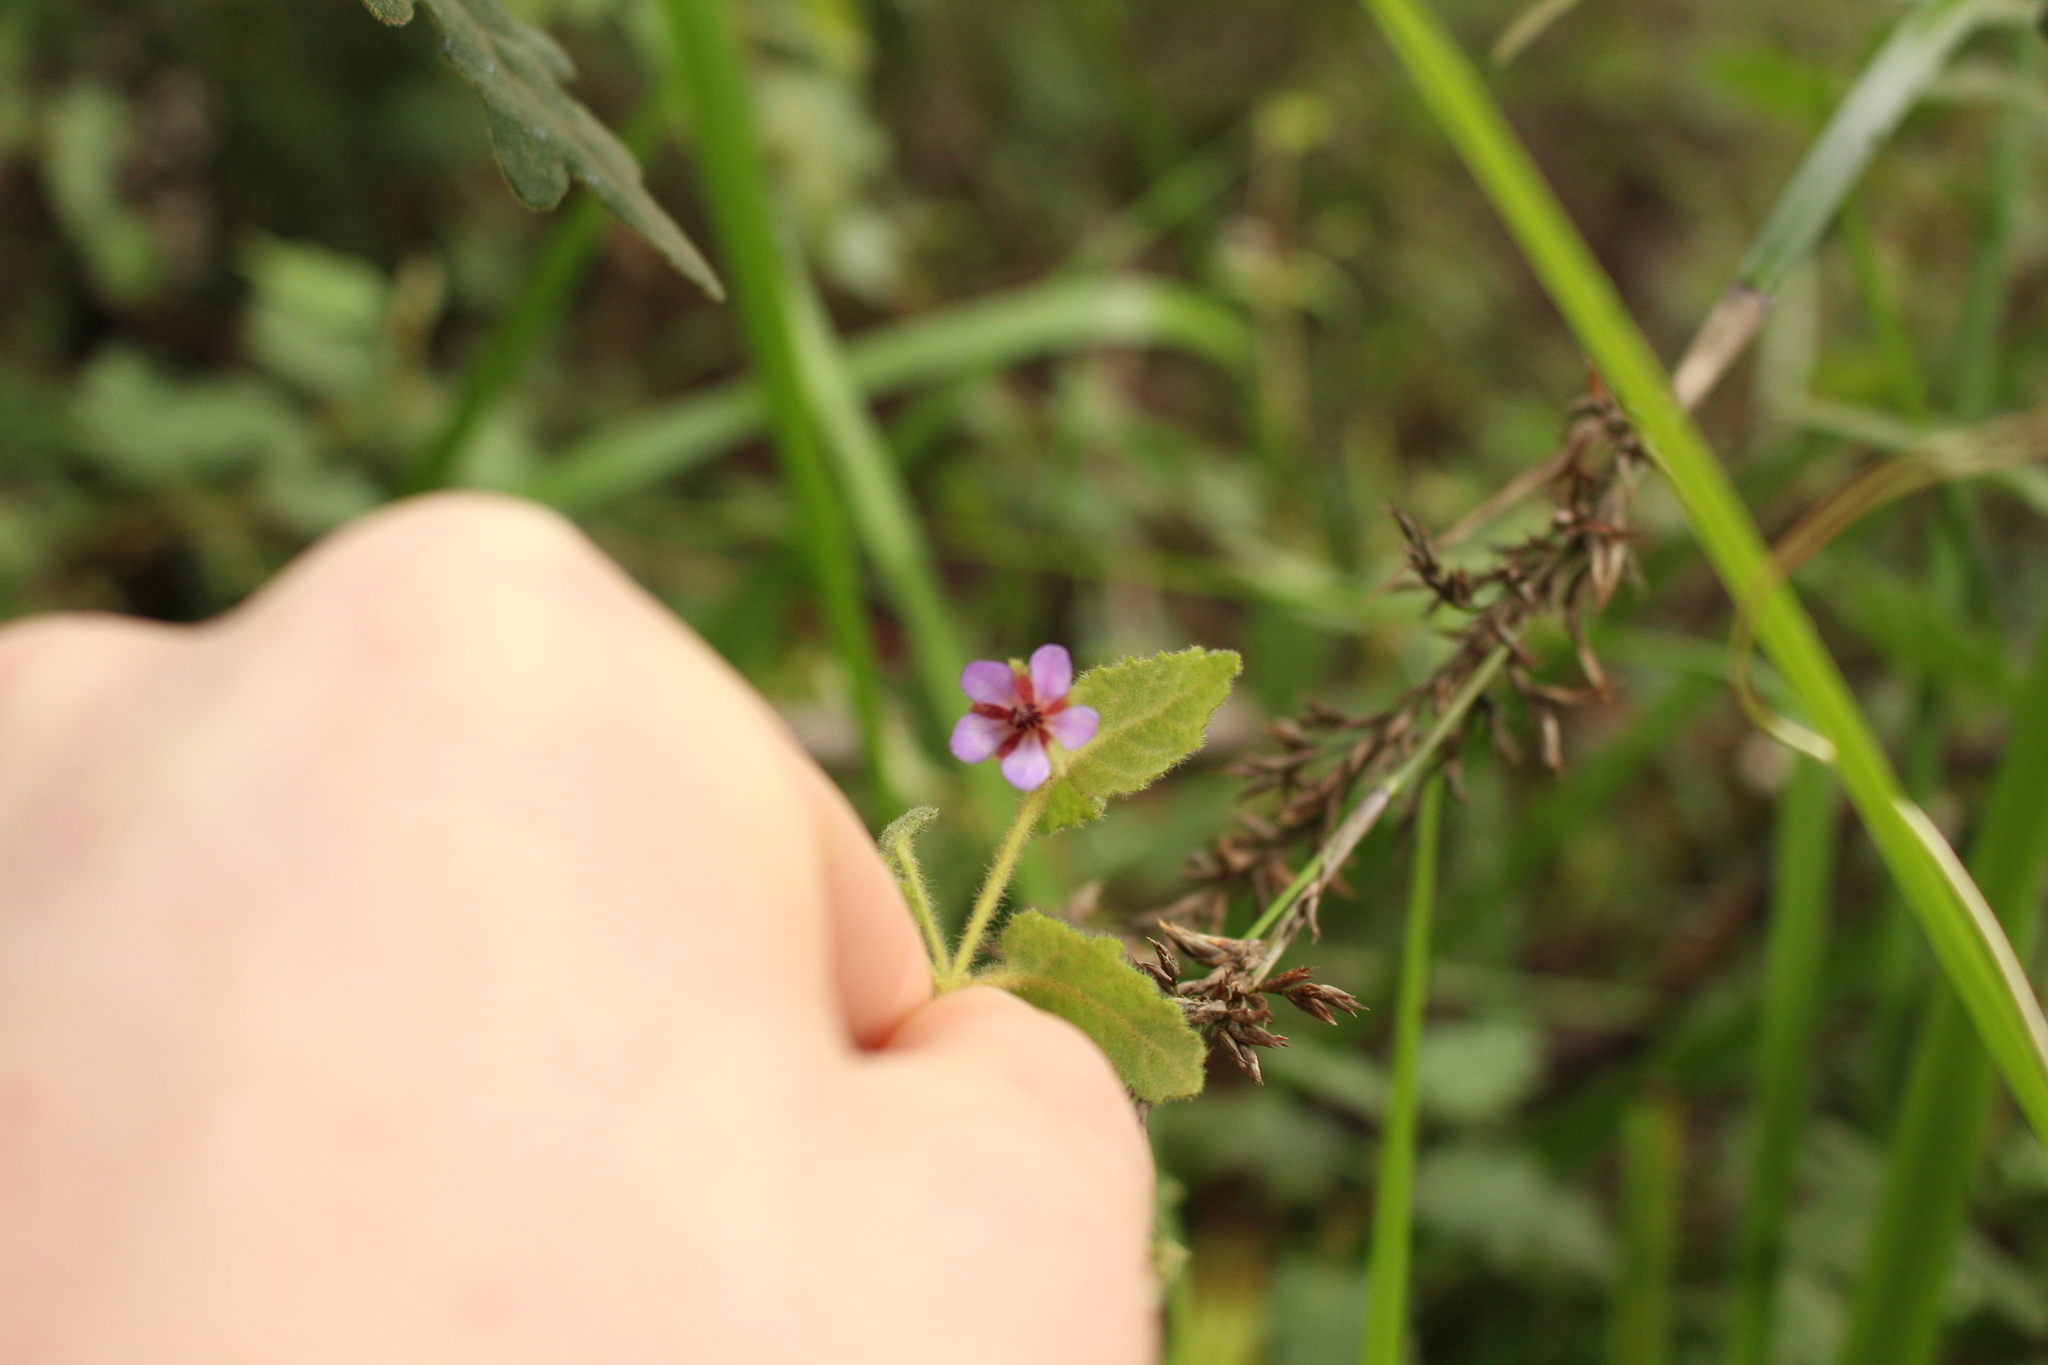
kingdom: Plantae
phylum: Tracheophyta
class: Magnoliopsida
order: Oxalidales
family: Elaeocarpaceae
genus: Tremandra
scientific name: Tremandra stelligera
